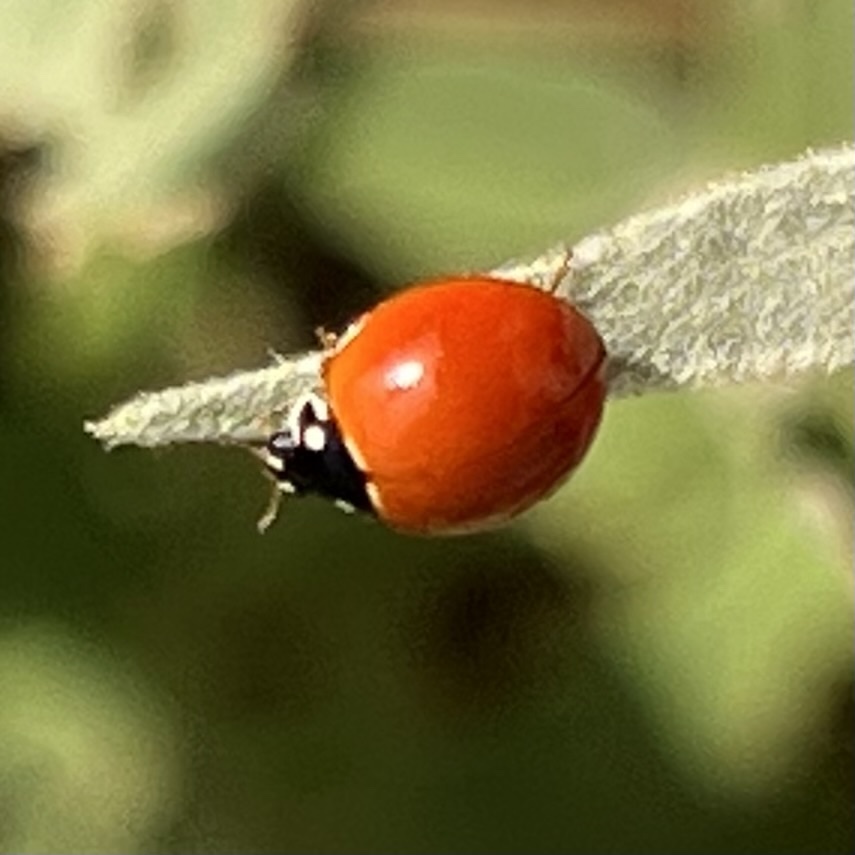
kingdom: Animalia
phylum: Arthropoda
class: Insecta
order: Coleoptera
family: Coccinellidae
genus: Cycloneda
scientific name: Cycloneda sanguinea
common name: Ladybird beetle
